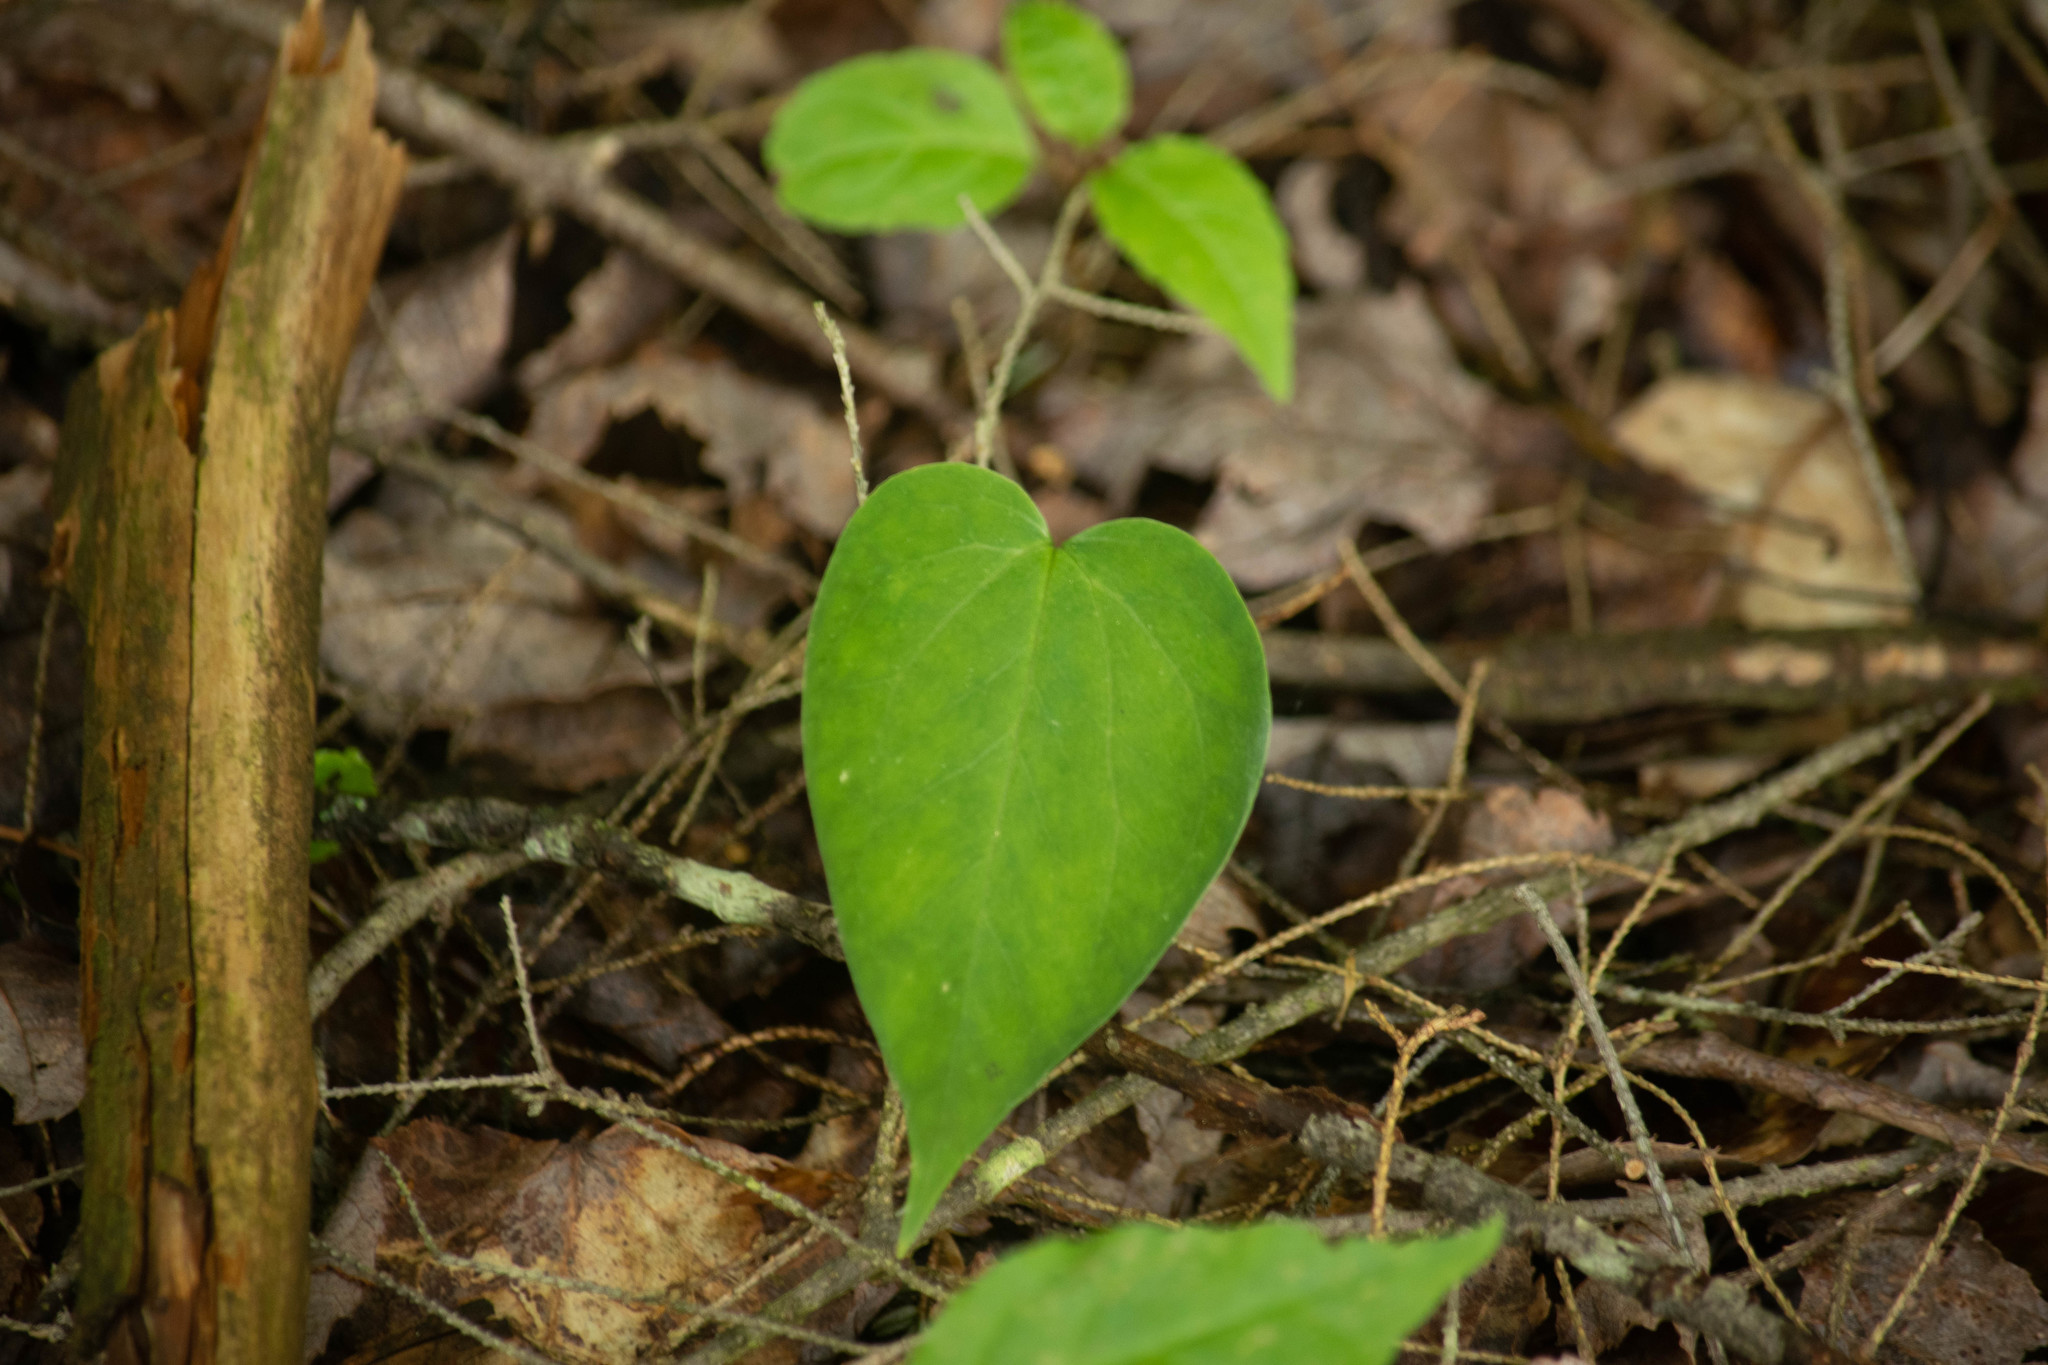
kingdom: Plantae
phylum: Tracheophyta
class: Liliopsida
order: Liliales
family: Melanthiaceae
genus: Trillium
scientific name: Trillium
